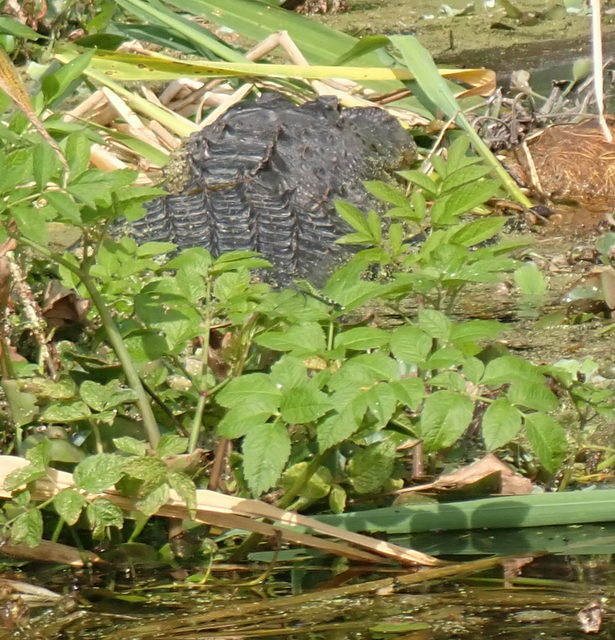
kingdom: Animalia
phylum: Chordata
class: Crocodylia
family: Alligatoridae
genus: Alligator
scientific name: Alligator mississippiensis
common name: American alligator
